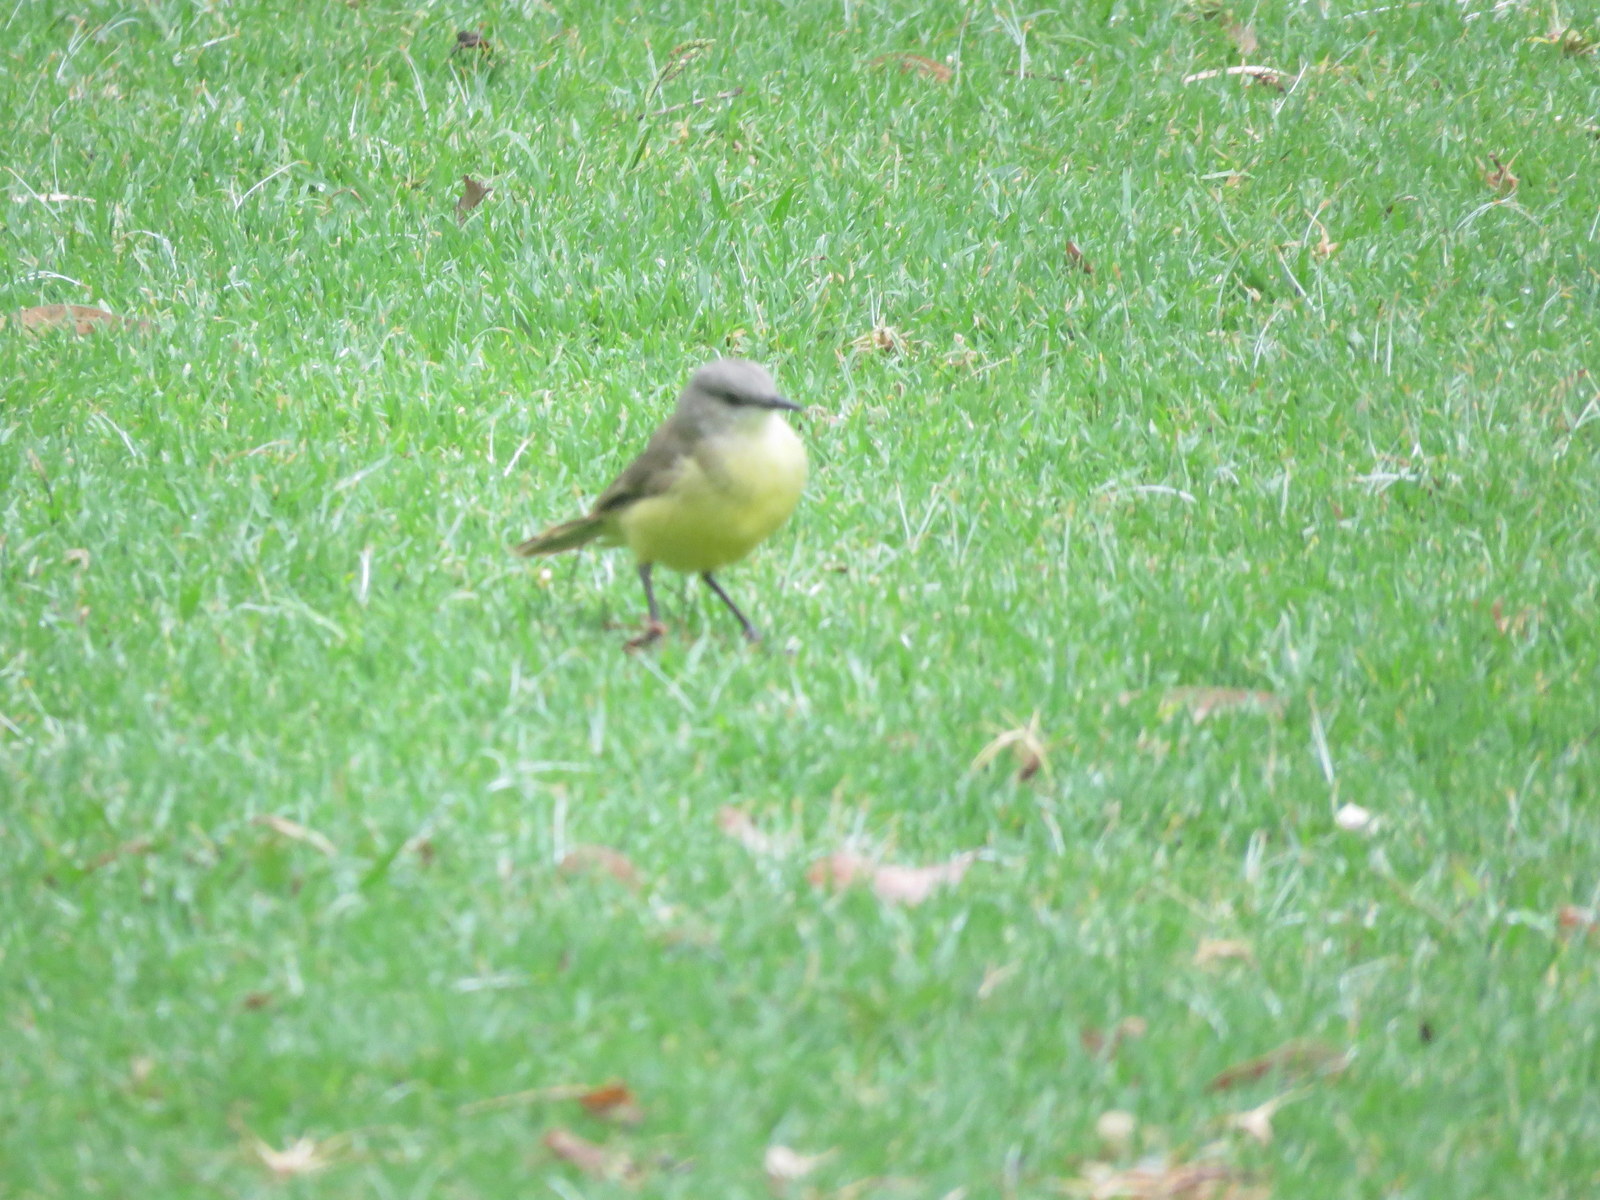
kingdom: Animalia
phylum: Chordata
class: Aves
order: Passeriformes
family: Tyrannidae
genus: Machetornis
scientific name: Machetornis rixosa
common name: Cattle tyrant
